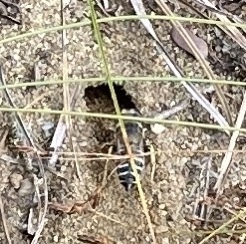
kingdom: Animalia
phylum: Arthropoda
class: Insecta
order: Hymenoptera
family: Crabronidae
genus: Bembix
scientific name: Bembix americana
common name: American sand wasp
